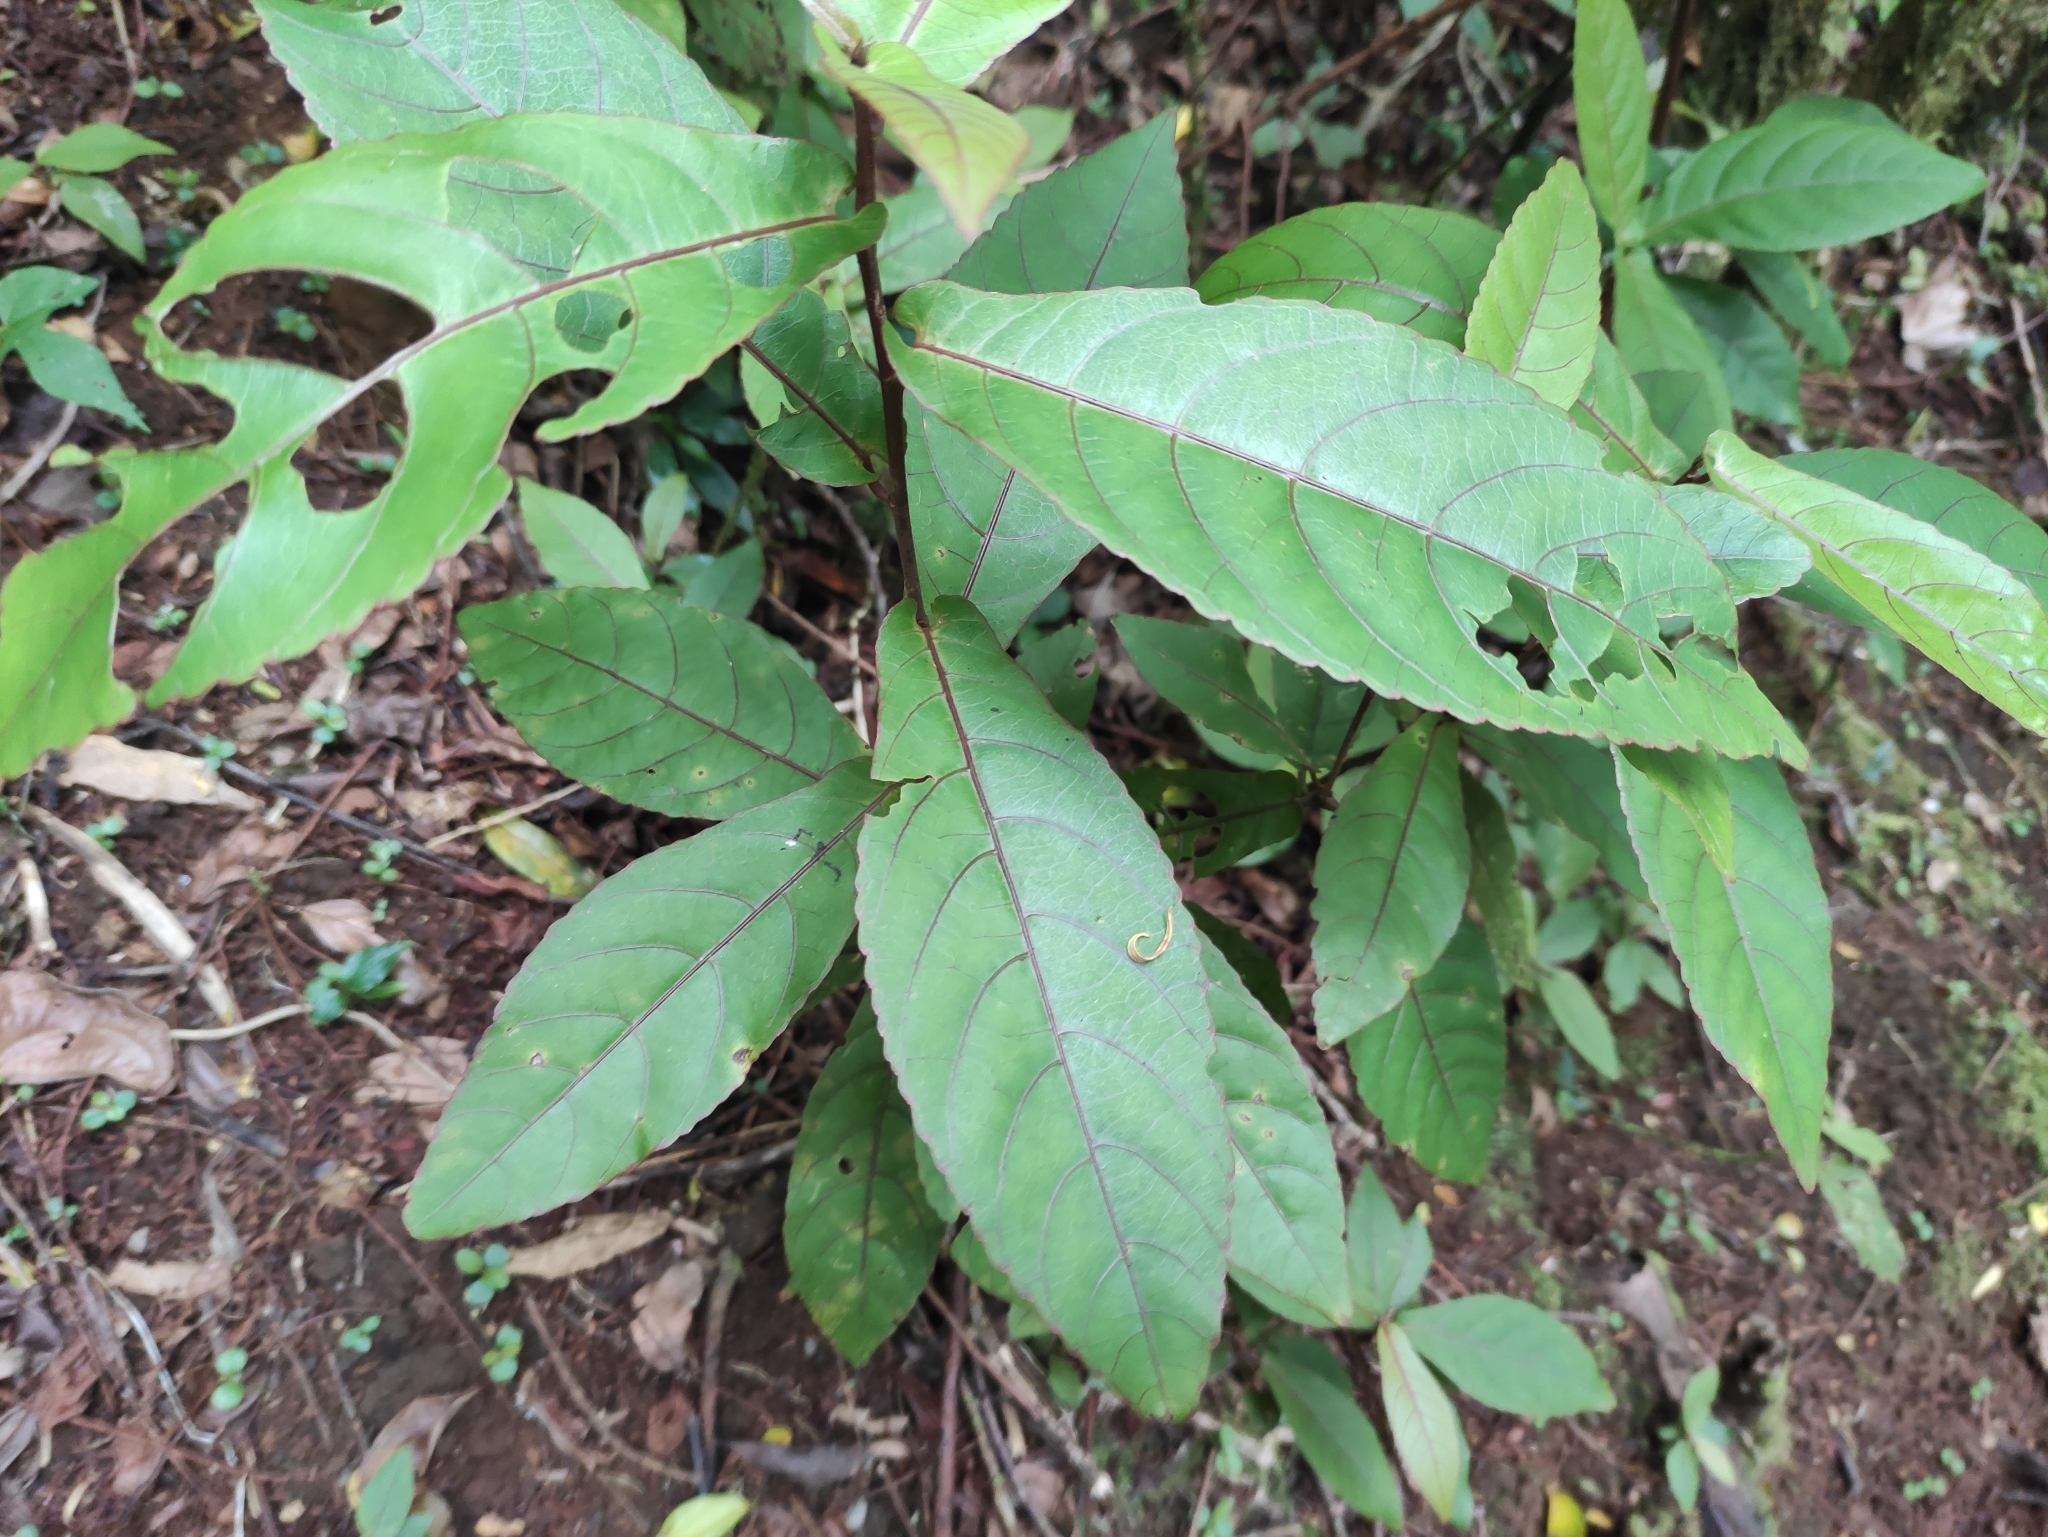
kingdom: Plantae
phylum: Tracheophyta
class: Magnoliopsida
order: Malpighiales
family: Euphorbiaceae
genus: Acalypha
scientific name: Acalypha integrifolia
